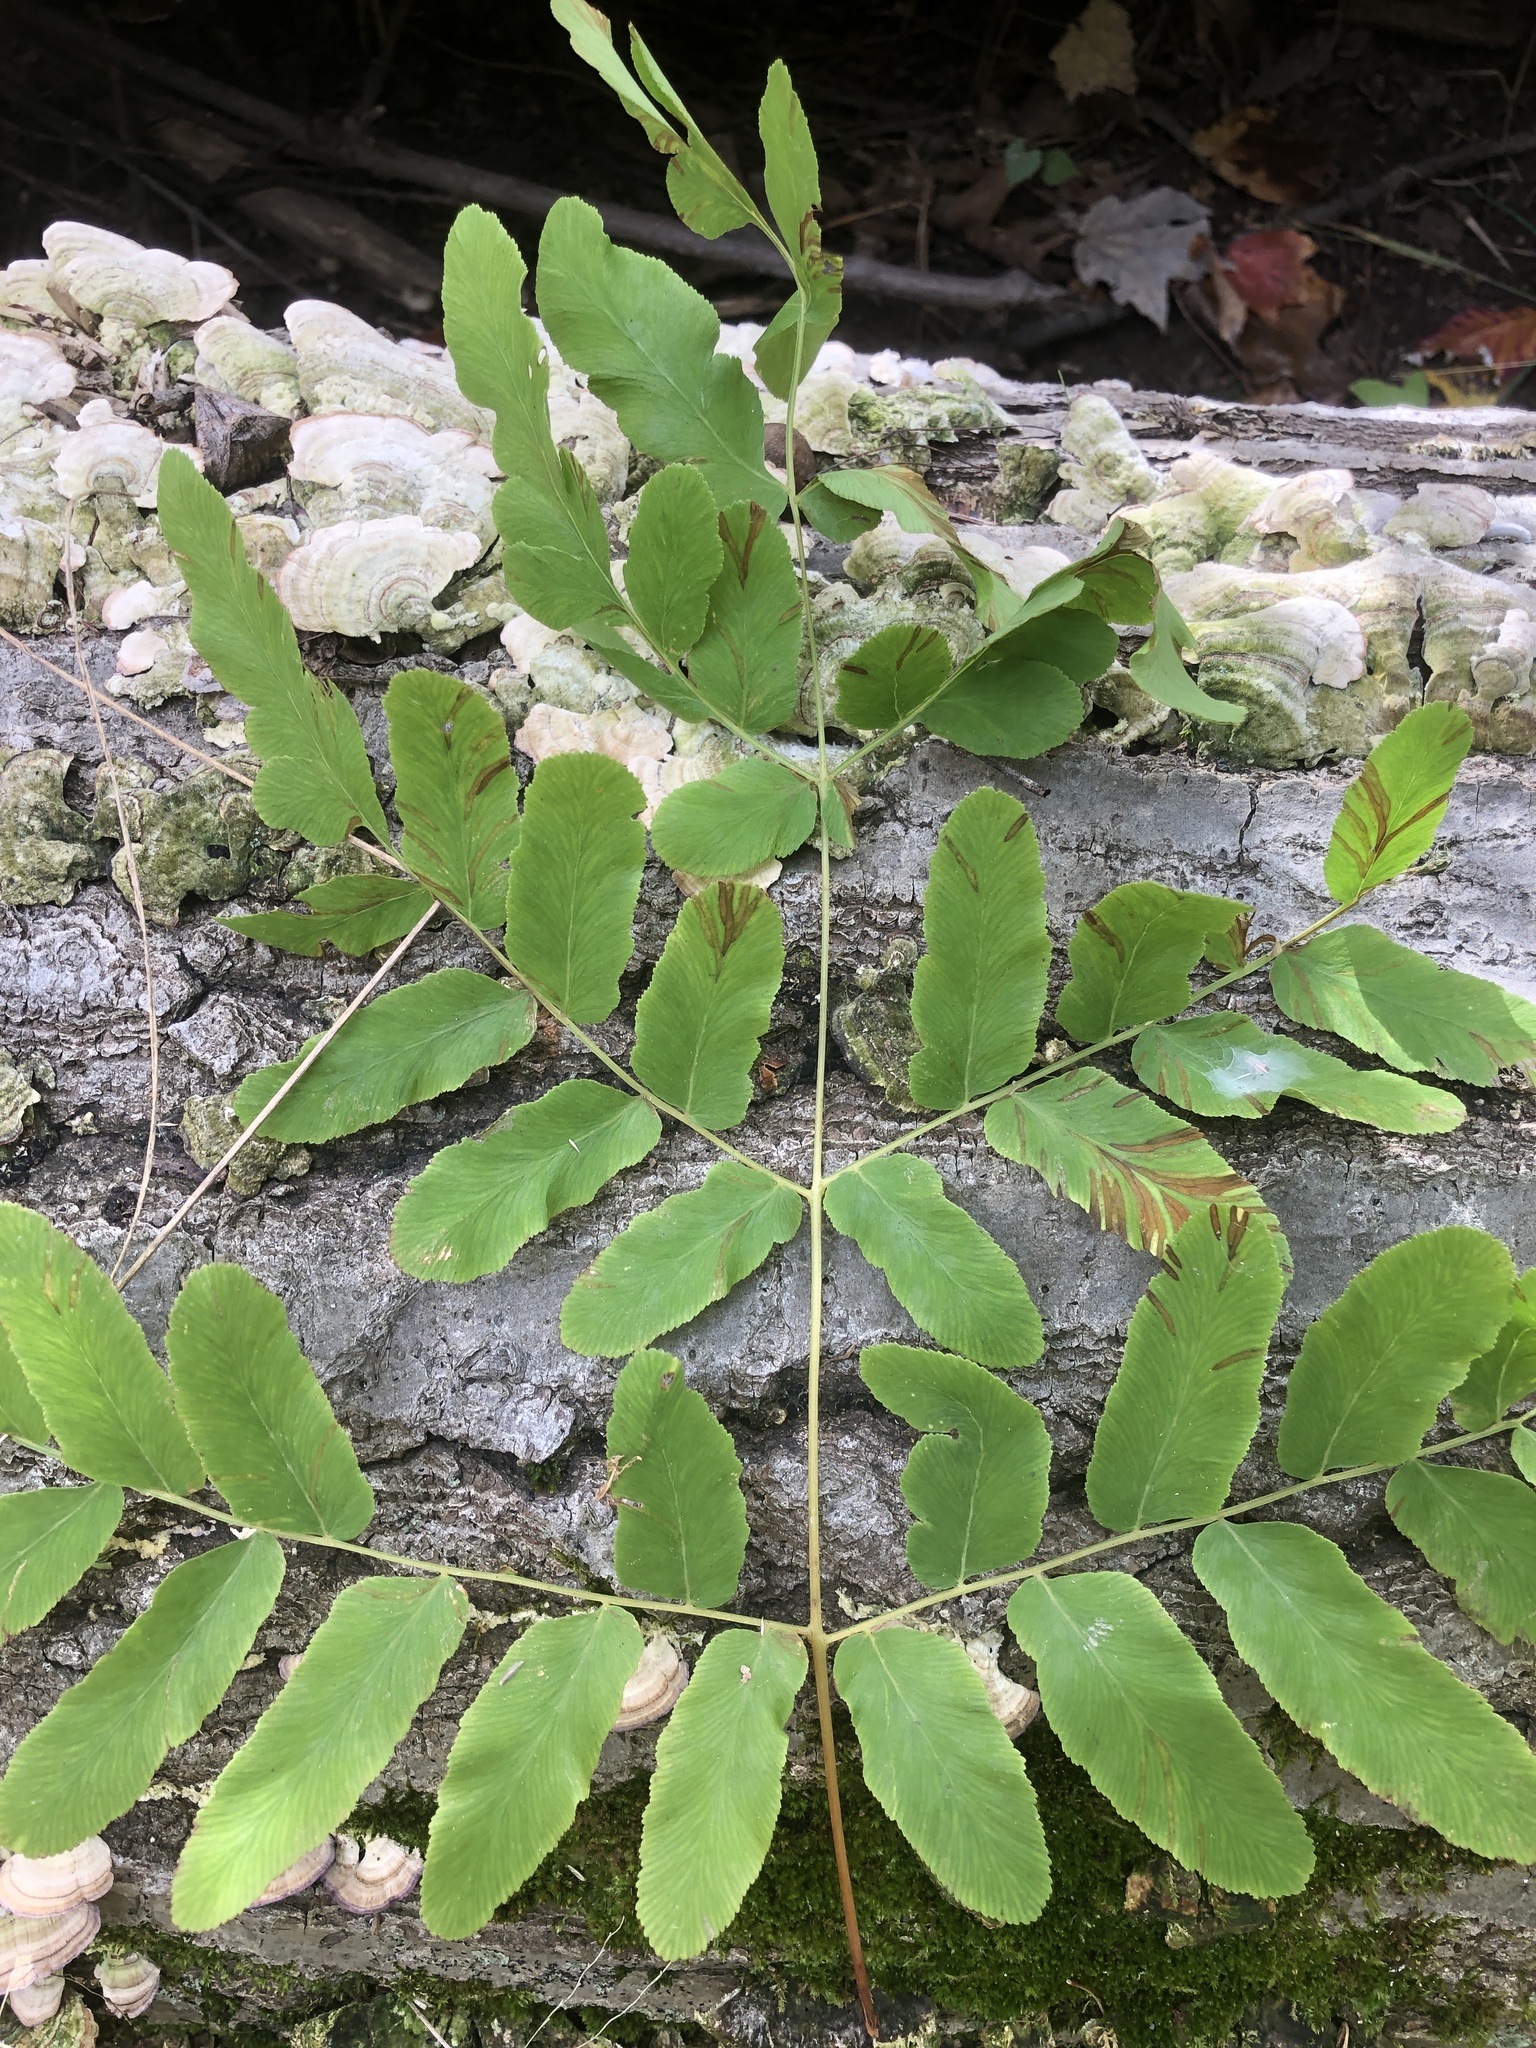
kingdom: Plantae
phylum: Tracheophyta
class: Polypodiopsida
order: Osmundales
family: Osmundaceae
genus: Osmunda
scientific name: Osmunda spectabilis
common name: American royal fern
